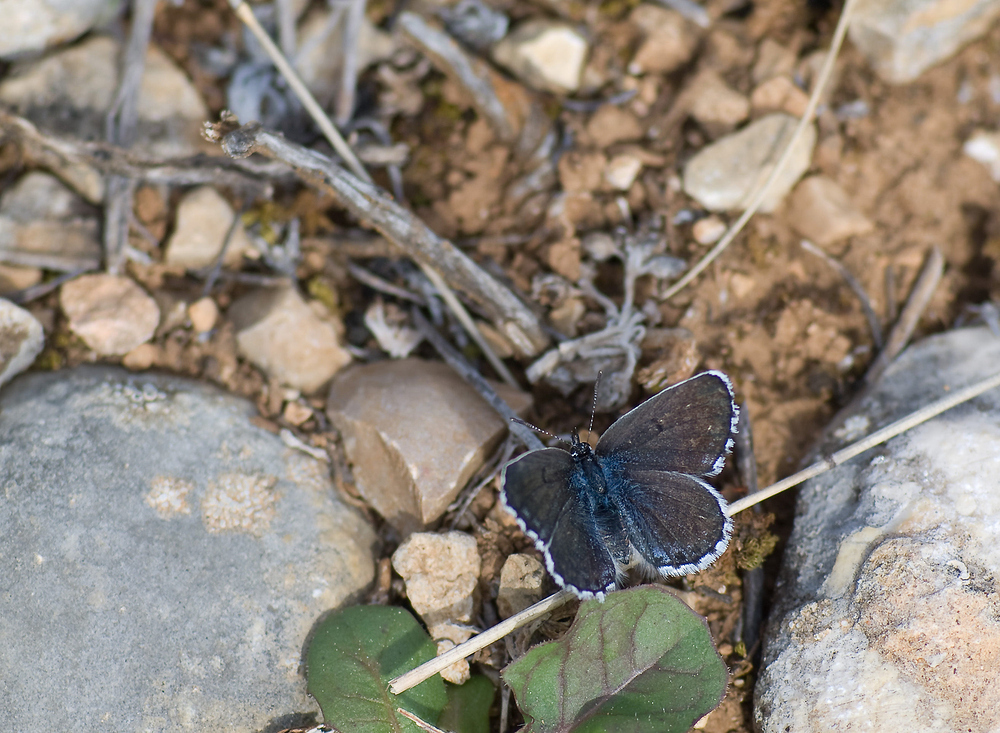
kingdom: Animalia
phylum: Arthropoda
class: Insecta
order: Lepidoptera
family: Lycaenidae
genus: Pseudophilotes
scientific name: Pseudophilotes baton
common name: Baton blue
